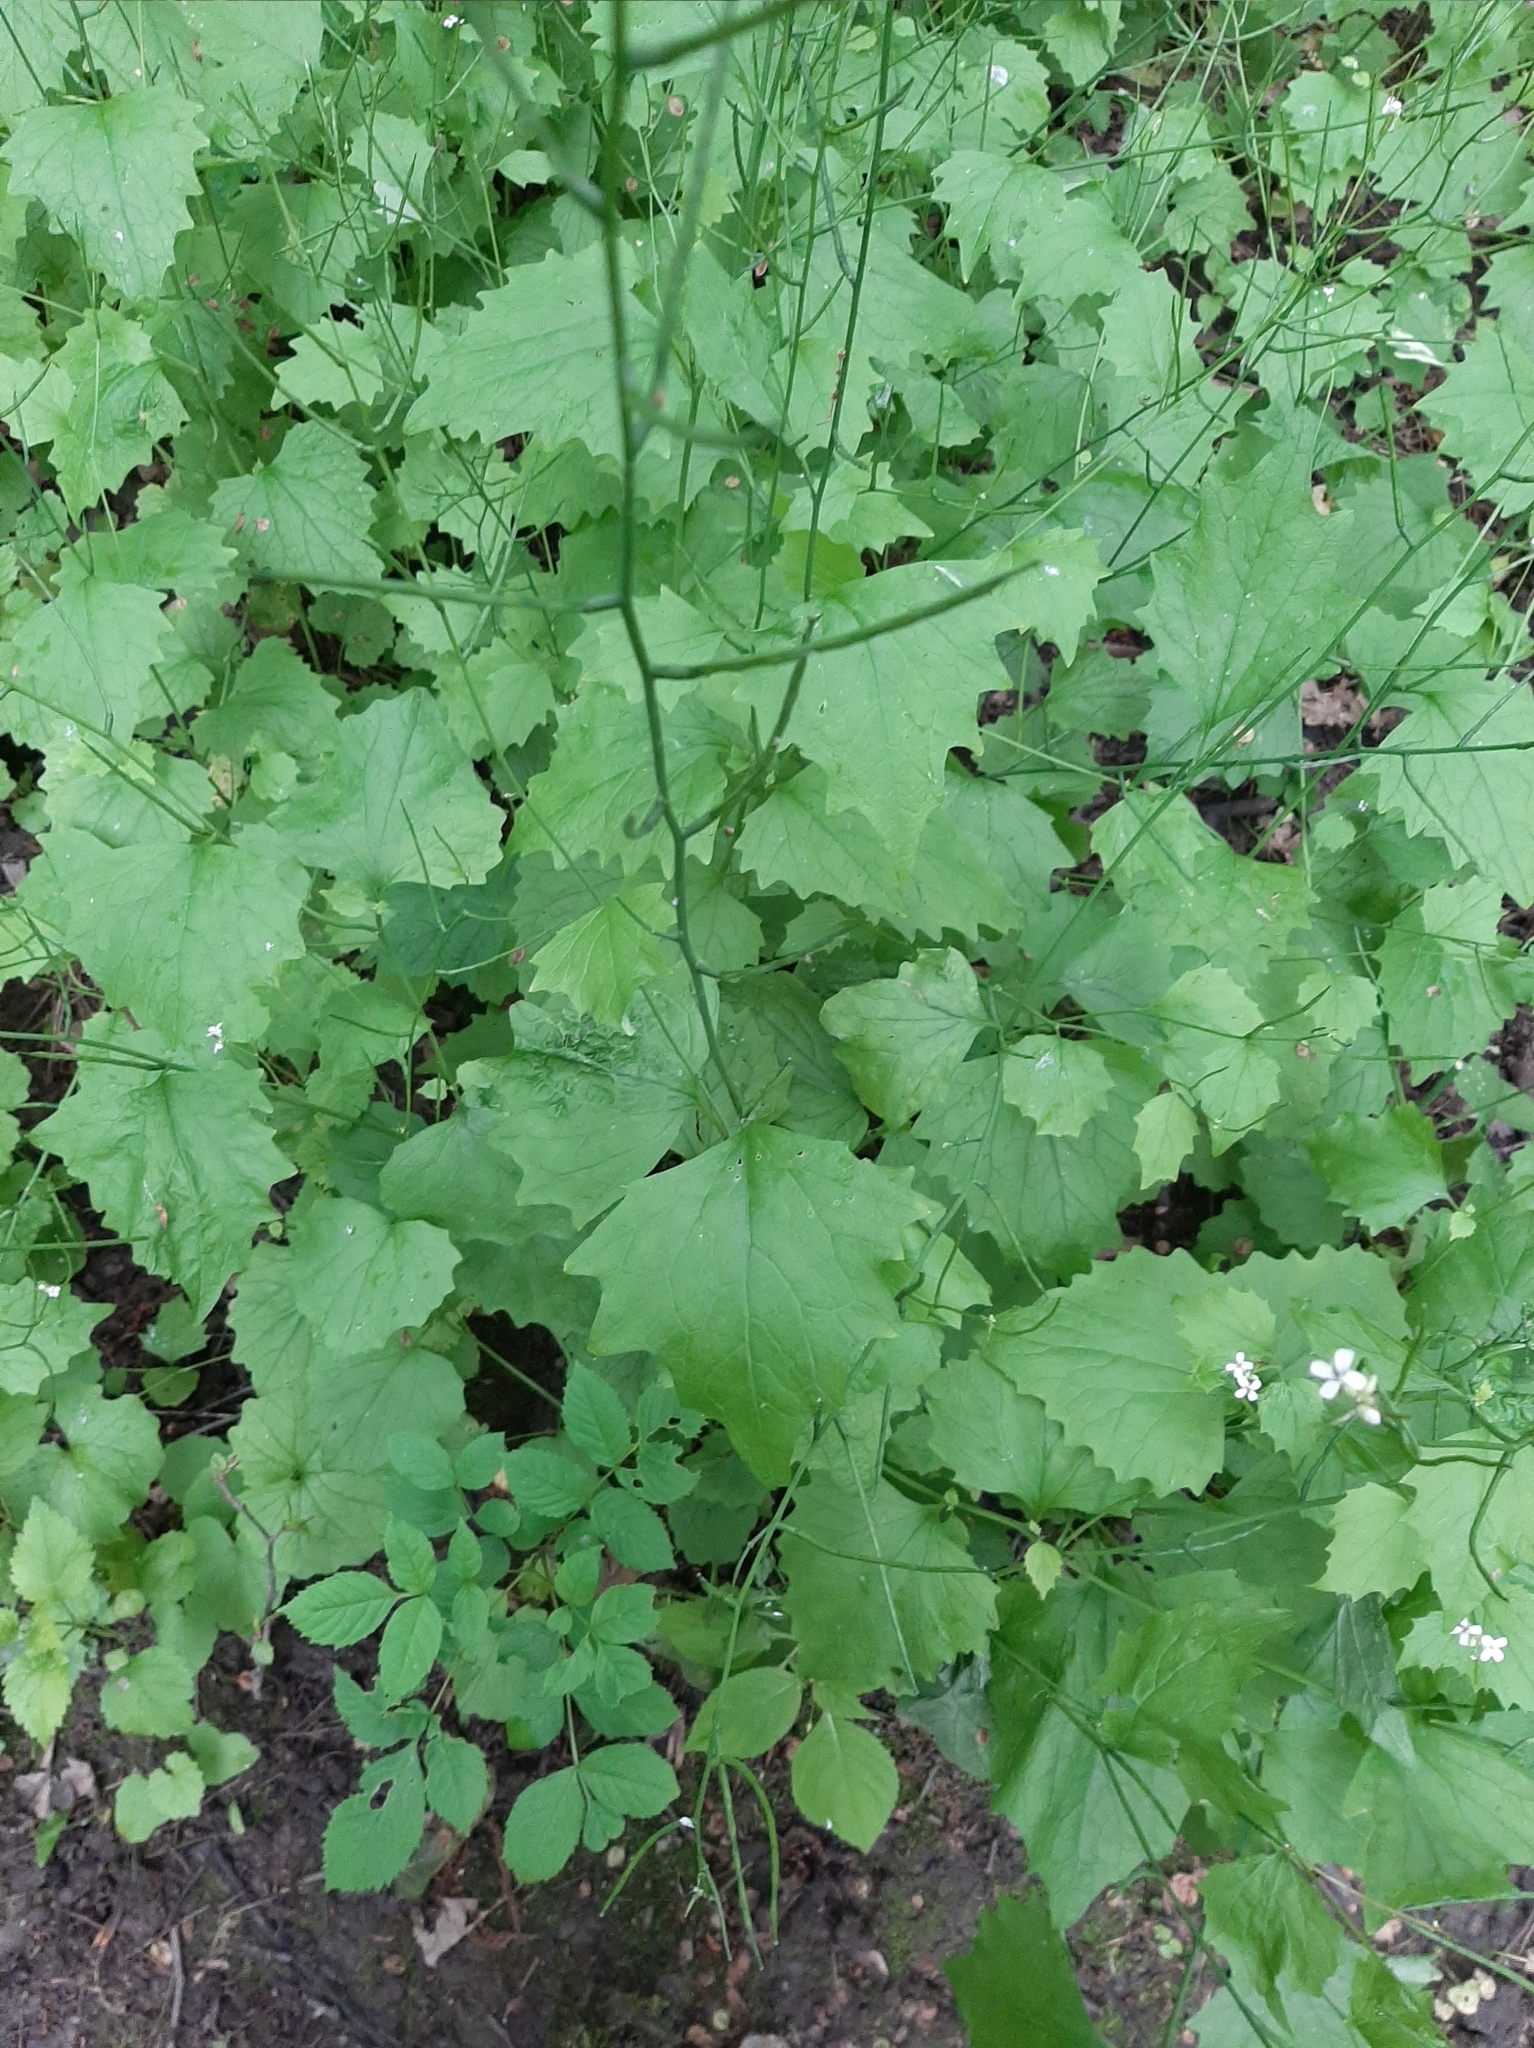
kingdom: Plantae
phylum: Tracheophyta
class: Magnoliopsida
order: Brassicales
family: Brassicaceae
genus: Alliaria
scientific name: Alliaria petiolata
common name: Garlic mustard
